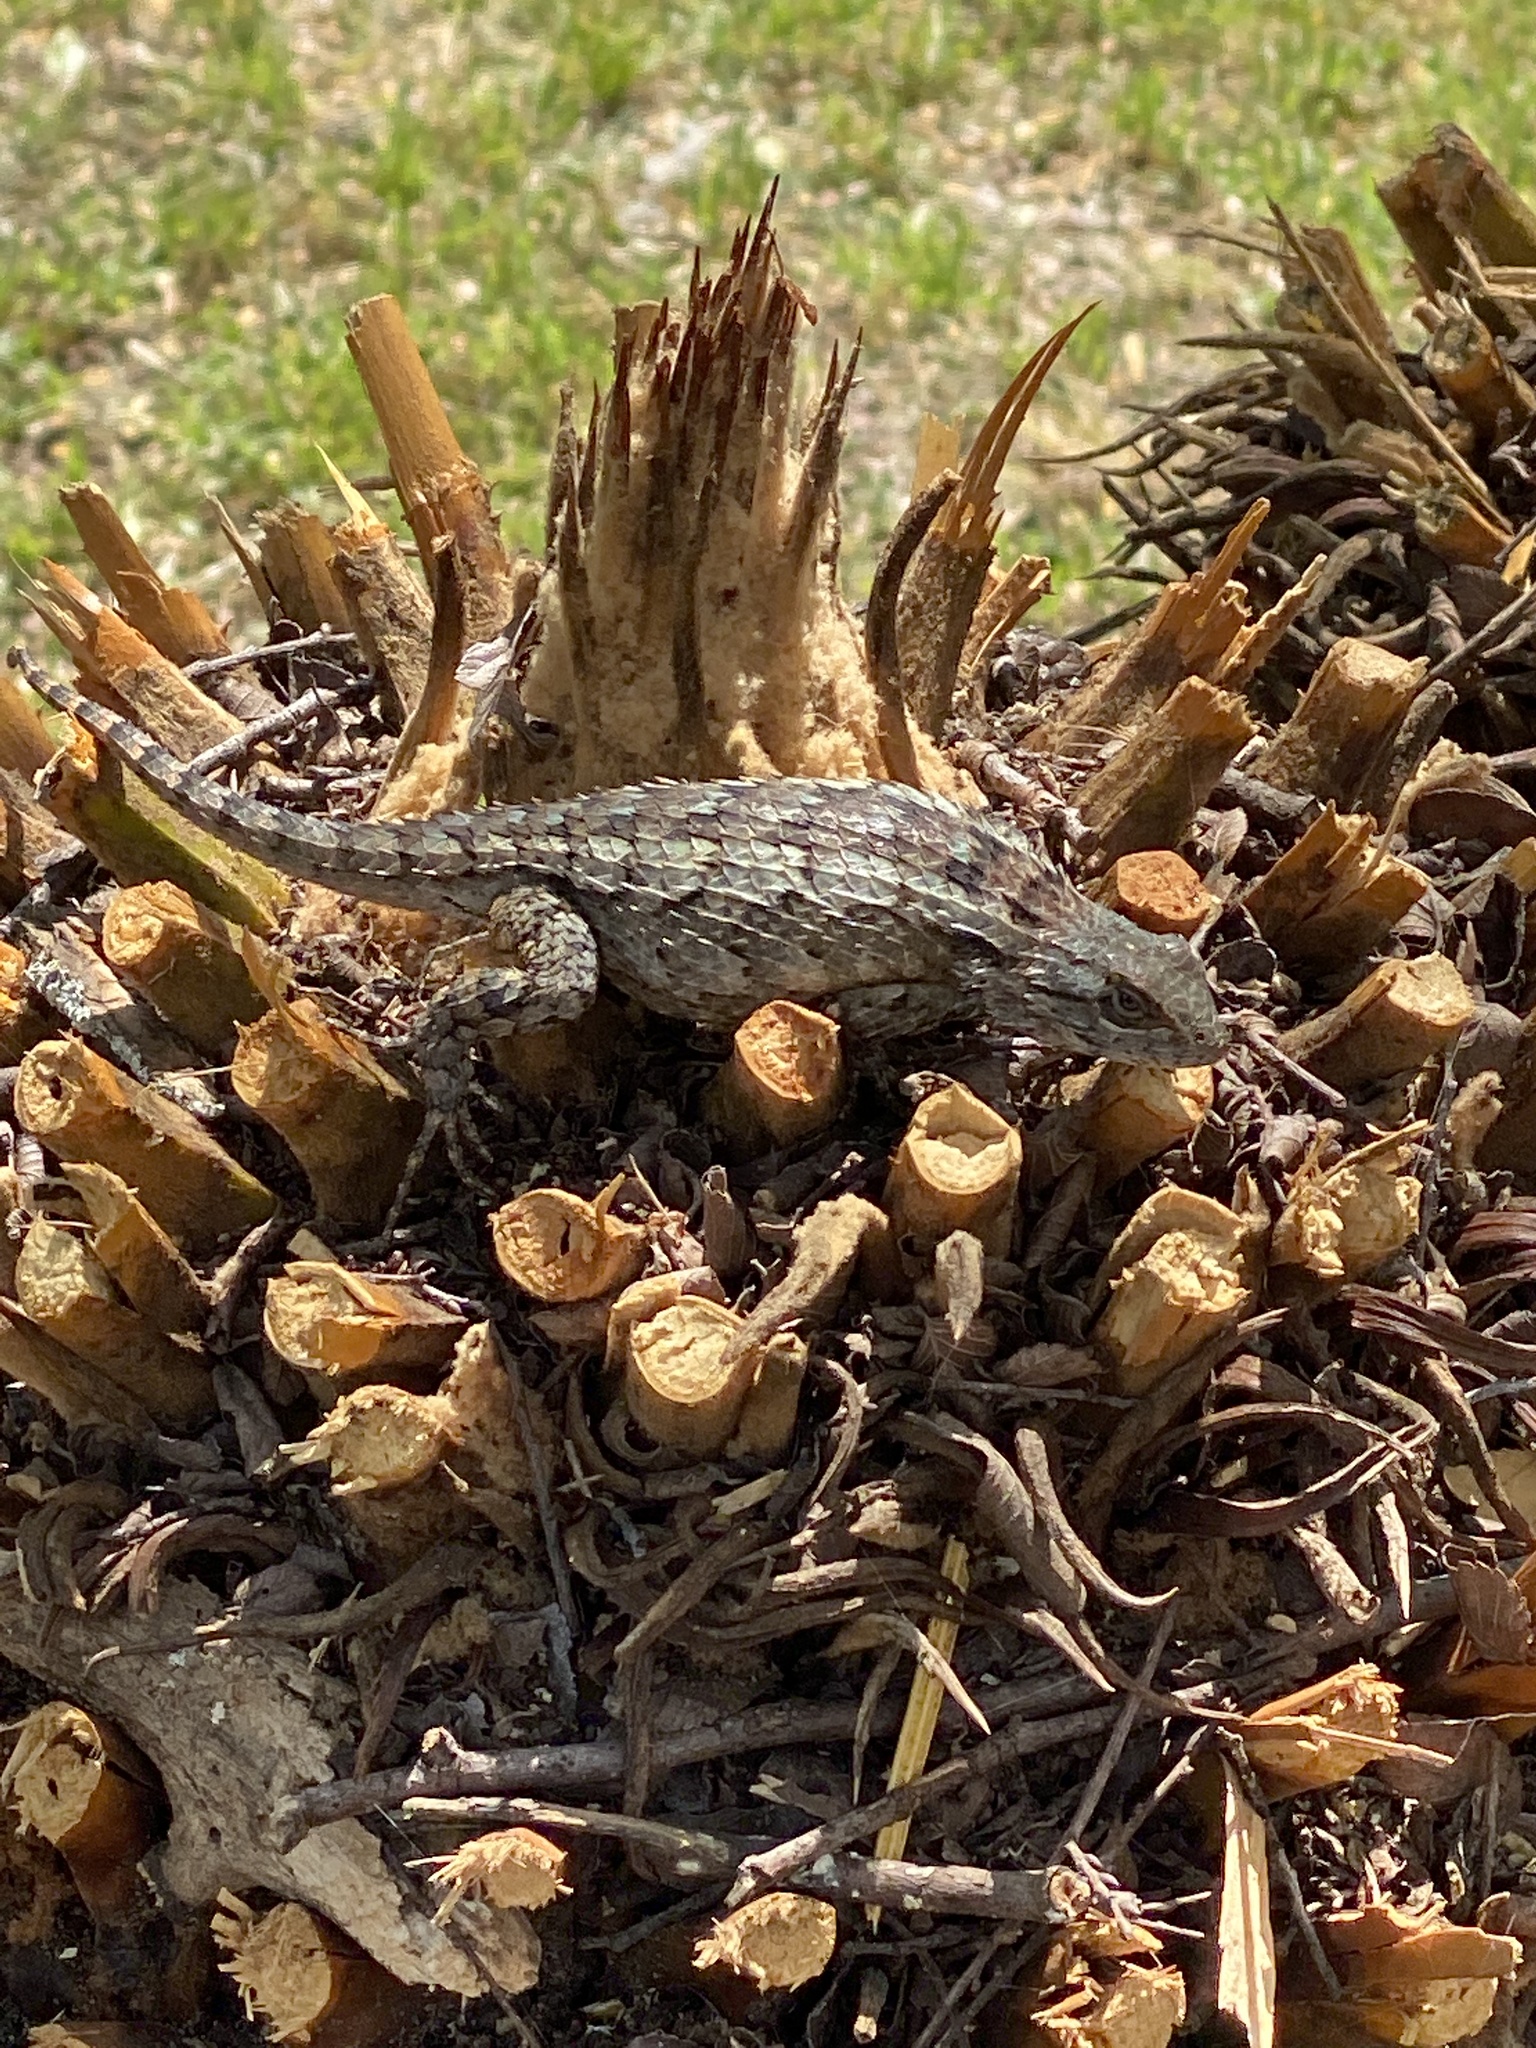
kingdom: Animalia
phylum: Chordata
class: Squamata
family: Phrynosomatidae
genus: Sceloporus
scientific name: Sceloporus olivaceus
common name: Texas spiny lizard
